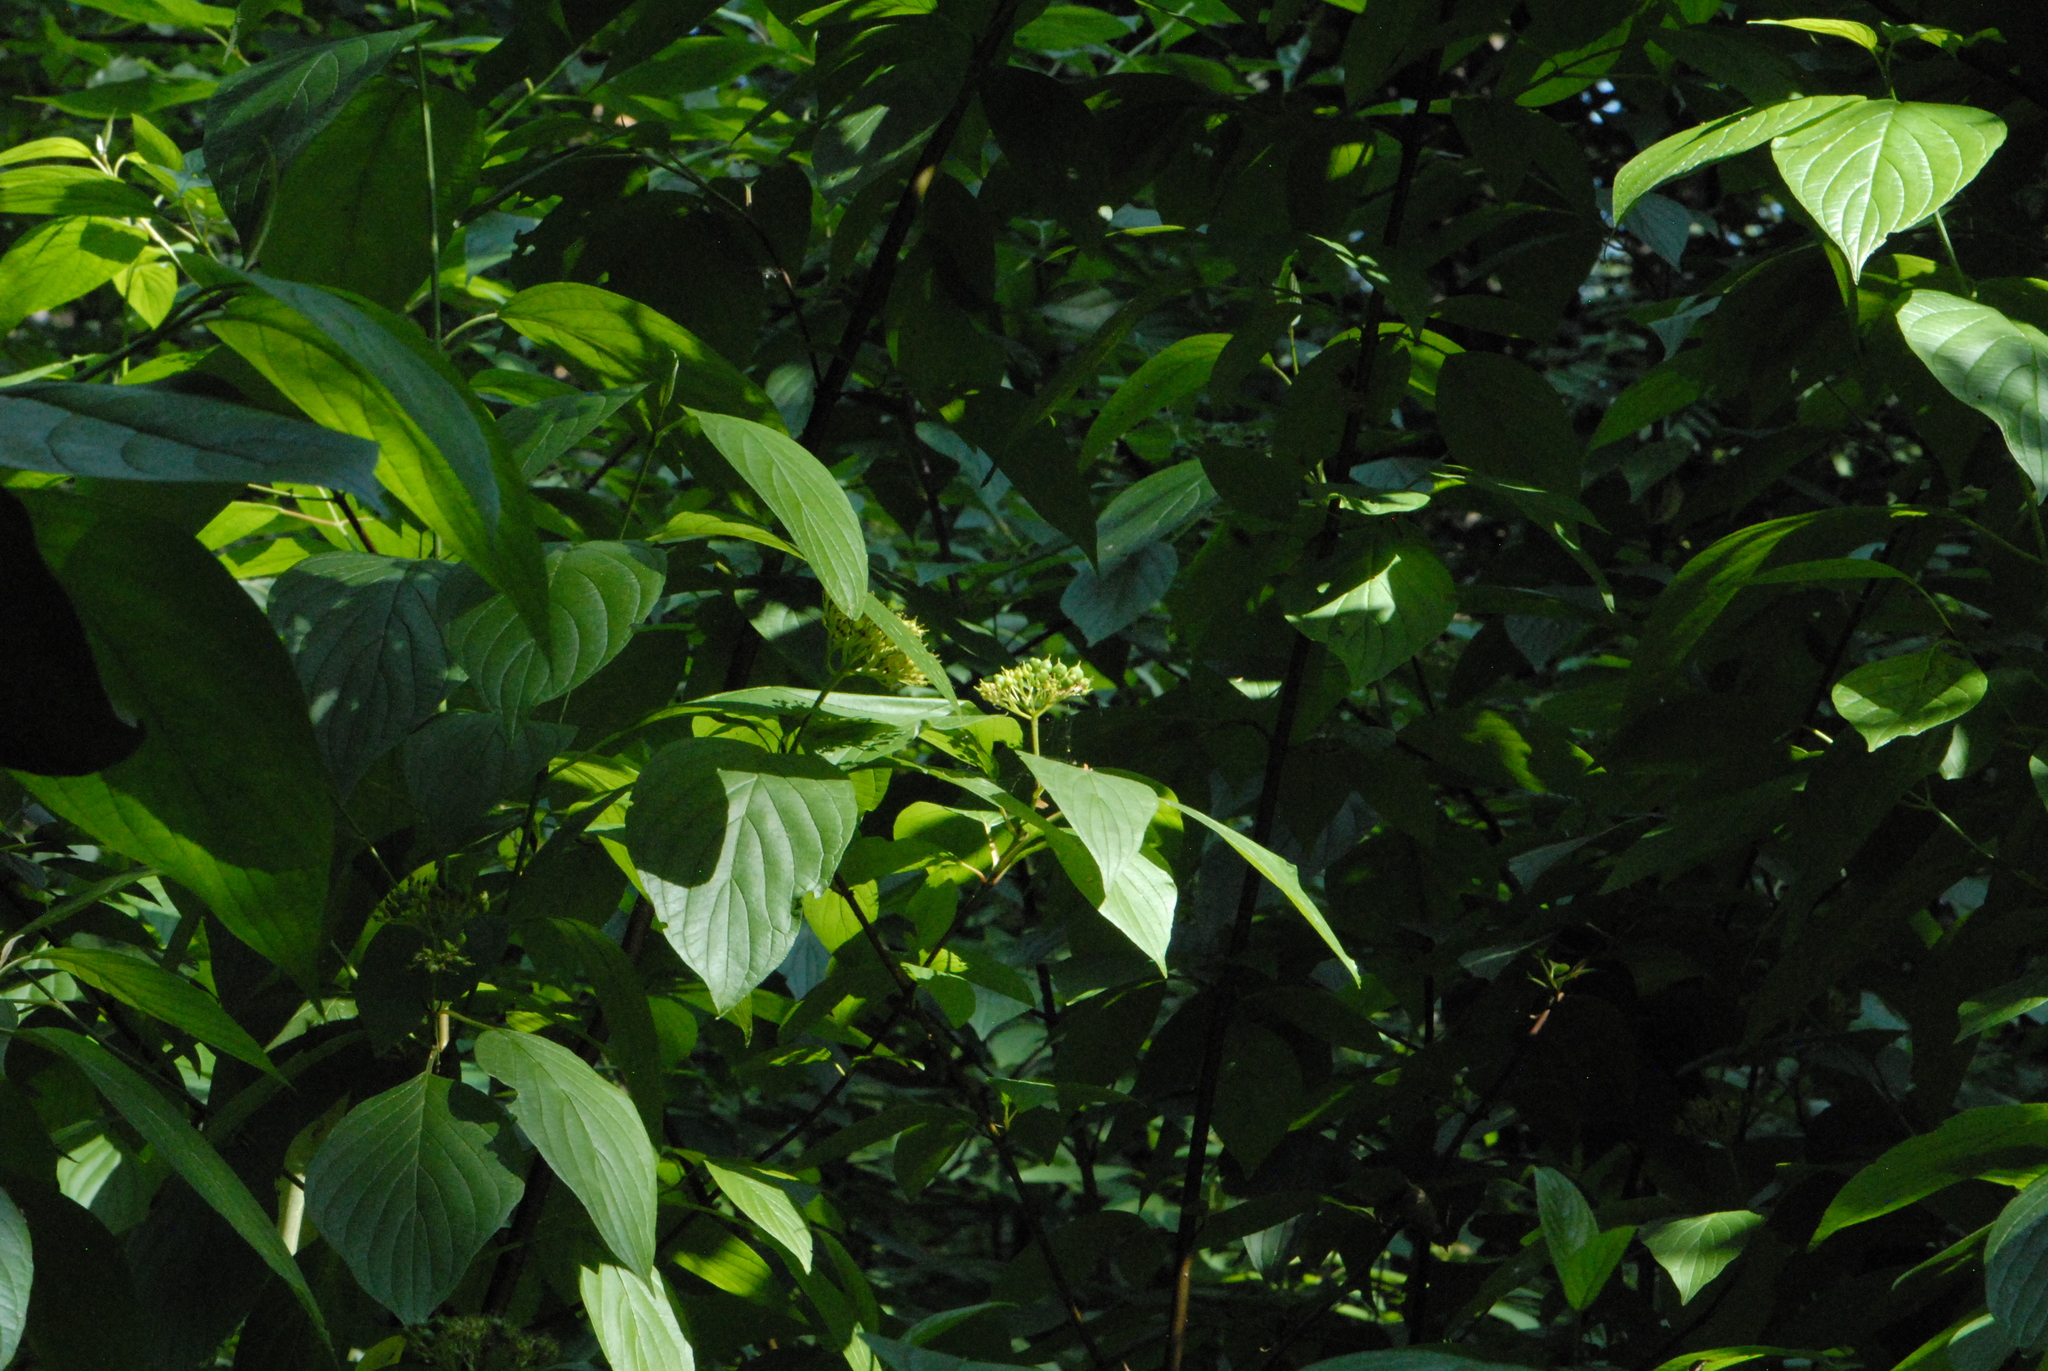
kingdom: Plantae
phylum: Tracheophyta
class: Magnoliopsida
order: Cornales
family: Cornaceae
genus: Cornus
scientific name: Cornus alba
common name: White dogwood
